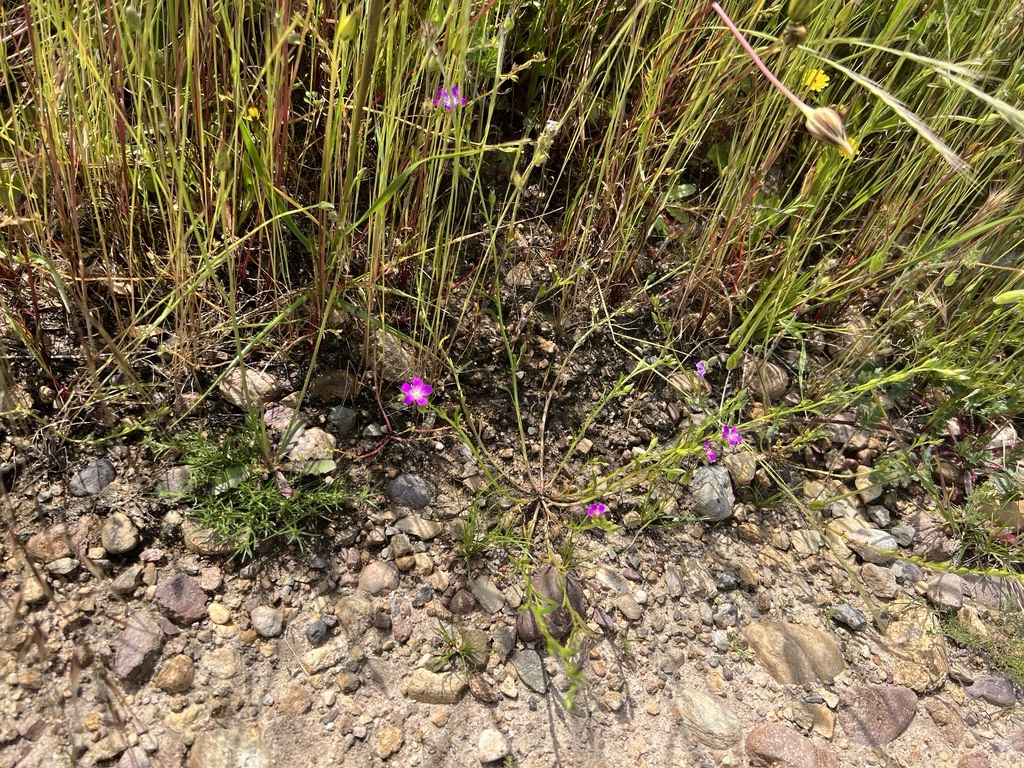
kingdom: Plantae
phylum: Tracheophyta
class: Magnoliopsida
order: Caryophyllales
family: Montiaceae
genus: Calandrinia
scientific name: Calandrinia menziesii
